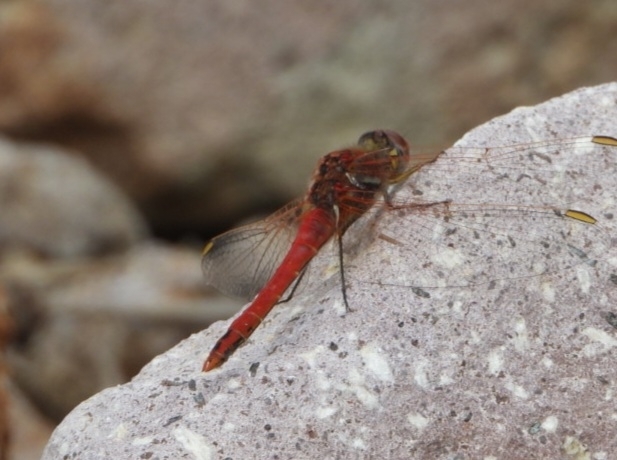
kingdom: Animalia
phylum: Arthropoda
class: Insecta
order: Odonata
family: Libellulidae
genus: Sympetrum
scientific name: Sympetrum fonscolombii
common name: Red-veined darter
